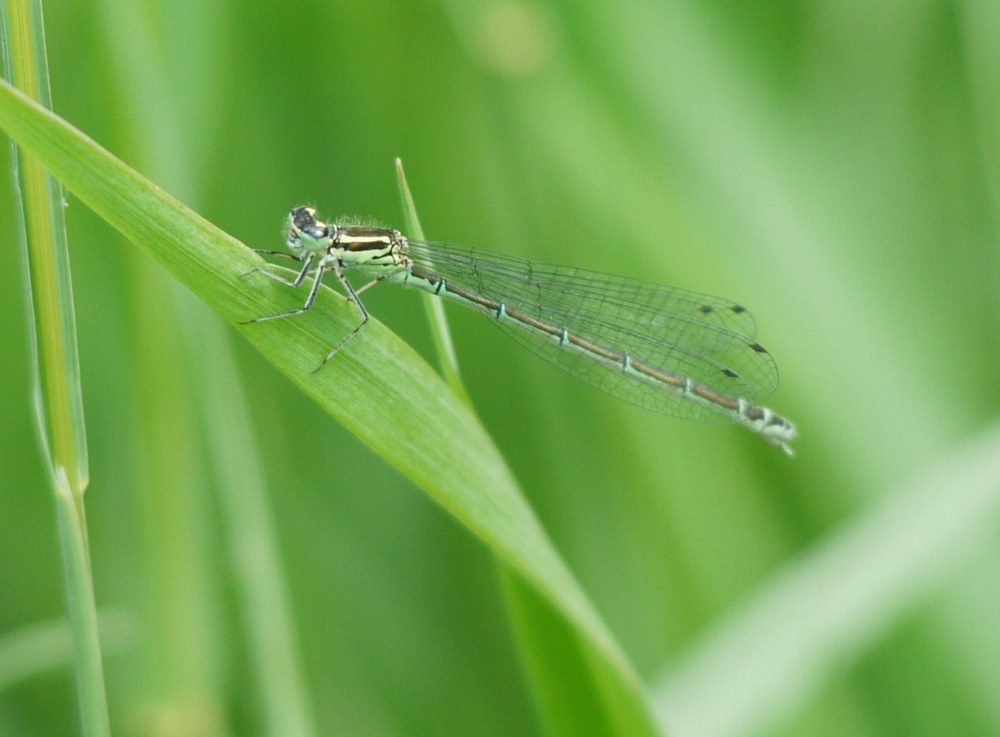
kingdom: Animalia
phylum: Arthropoda
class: Insecta
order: Odonata
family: Coenagrionidae
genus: Coenagrion
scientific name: Coenagrion puella
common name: Azure damselfly
